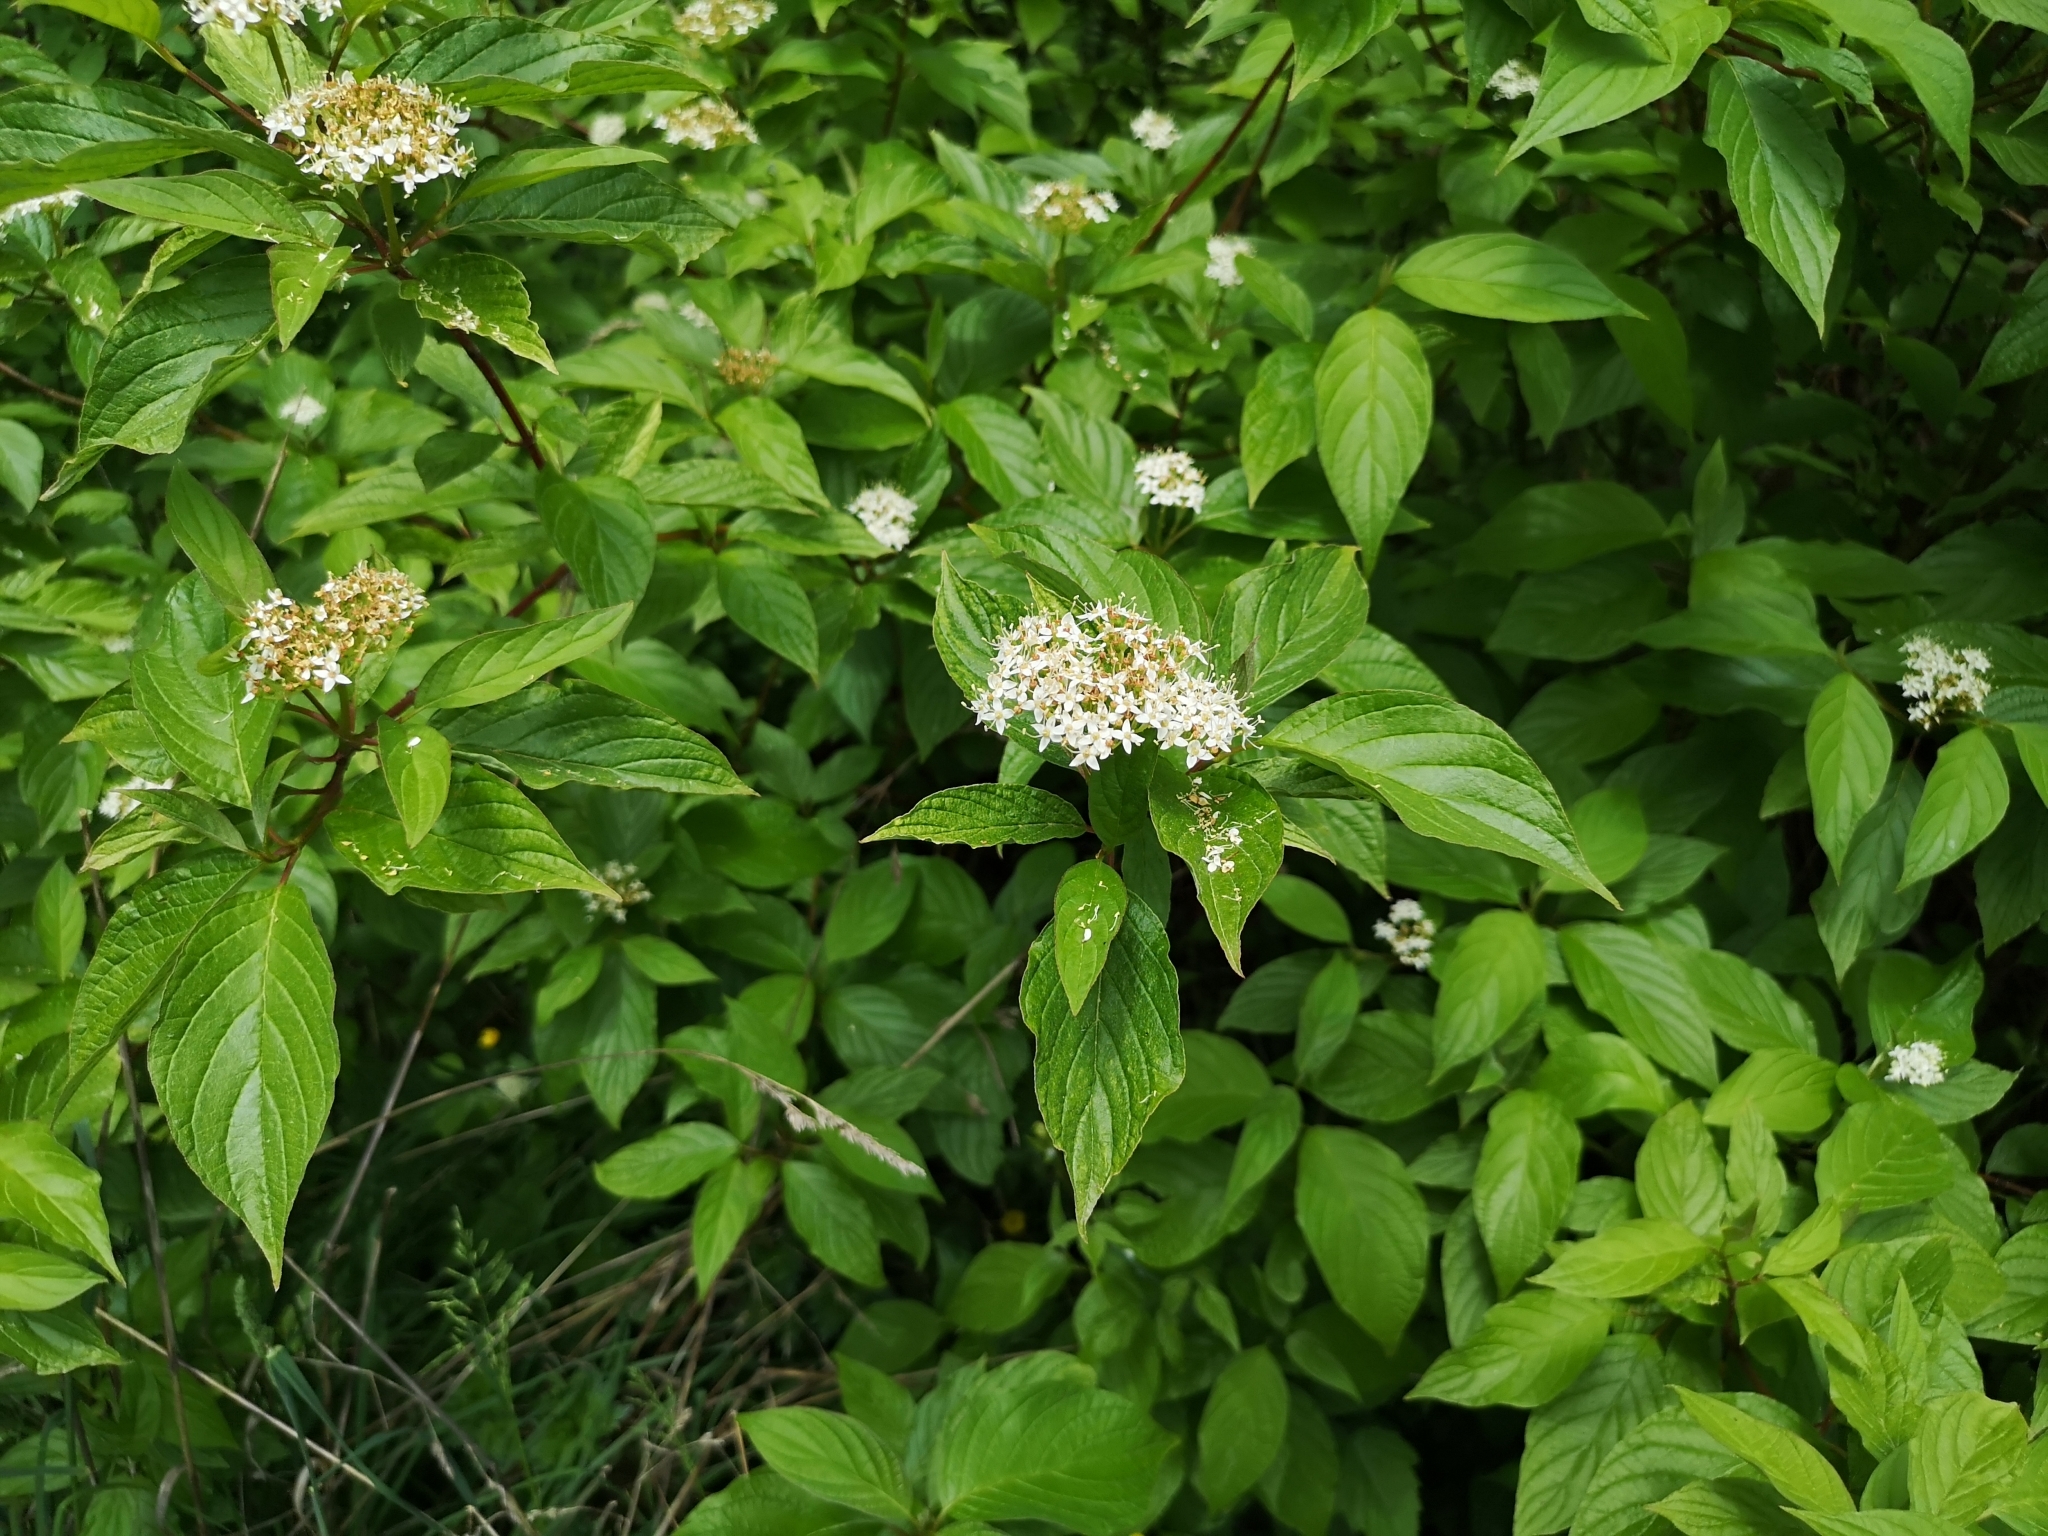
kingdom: Plantae
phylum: Tracheophyta
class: Magnoliopsida
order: Cornales
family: Cornaceae
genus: Cornus
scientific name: Cornus sericea
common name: Red-osier dogwood
